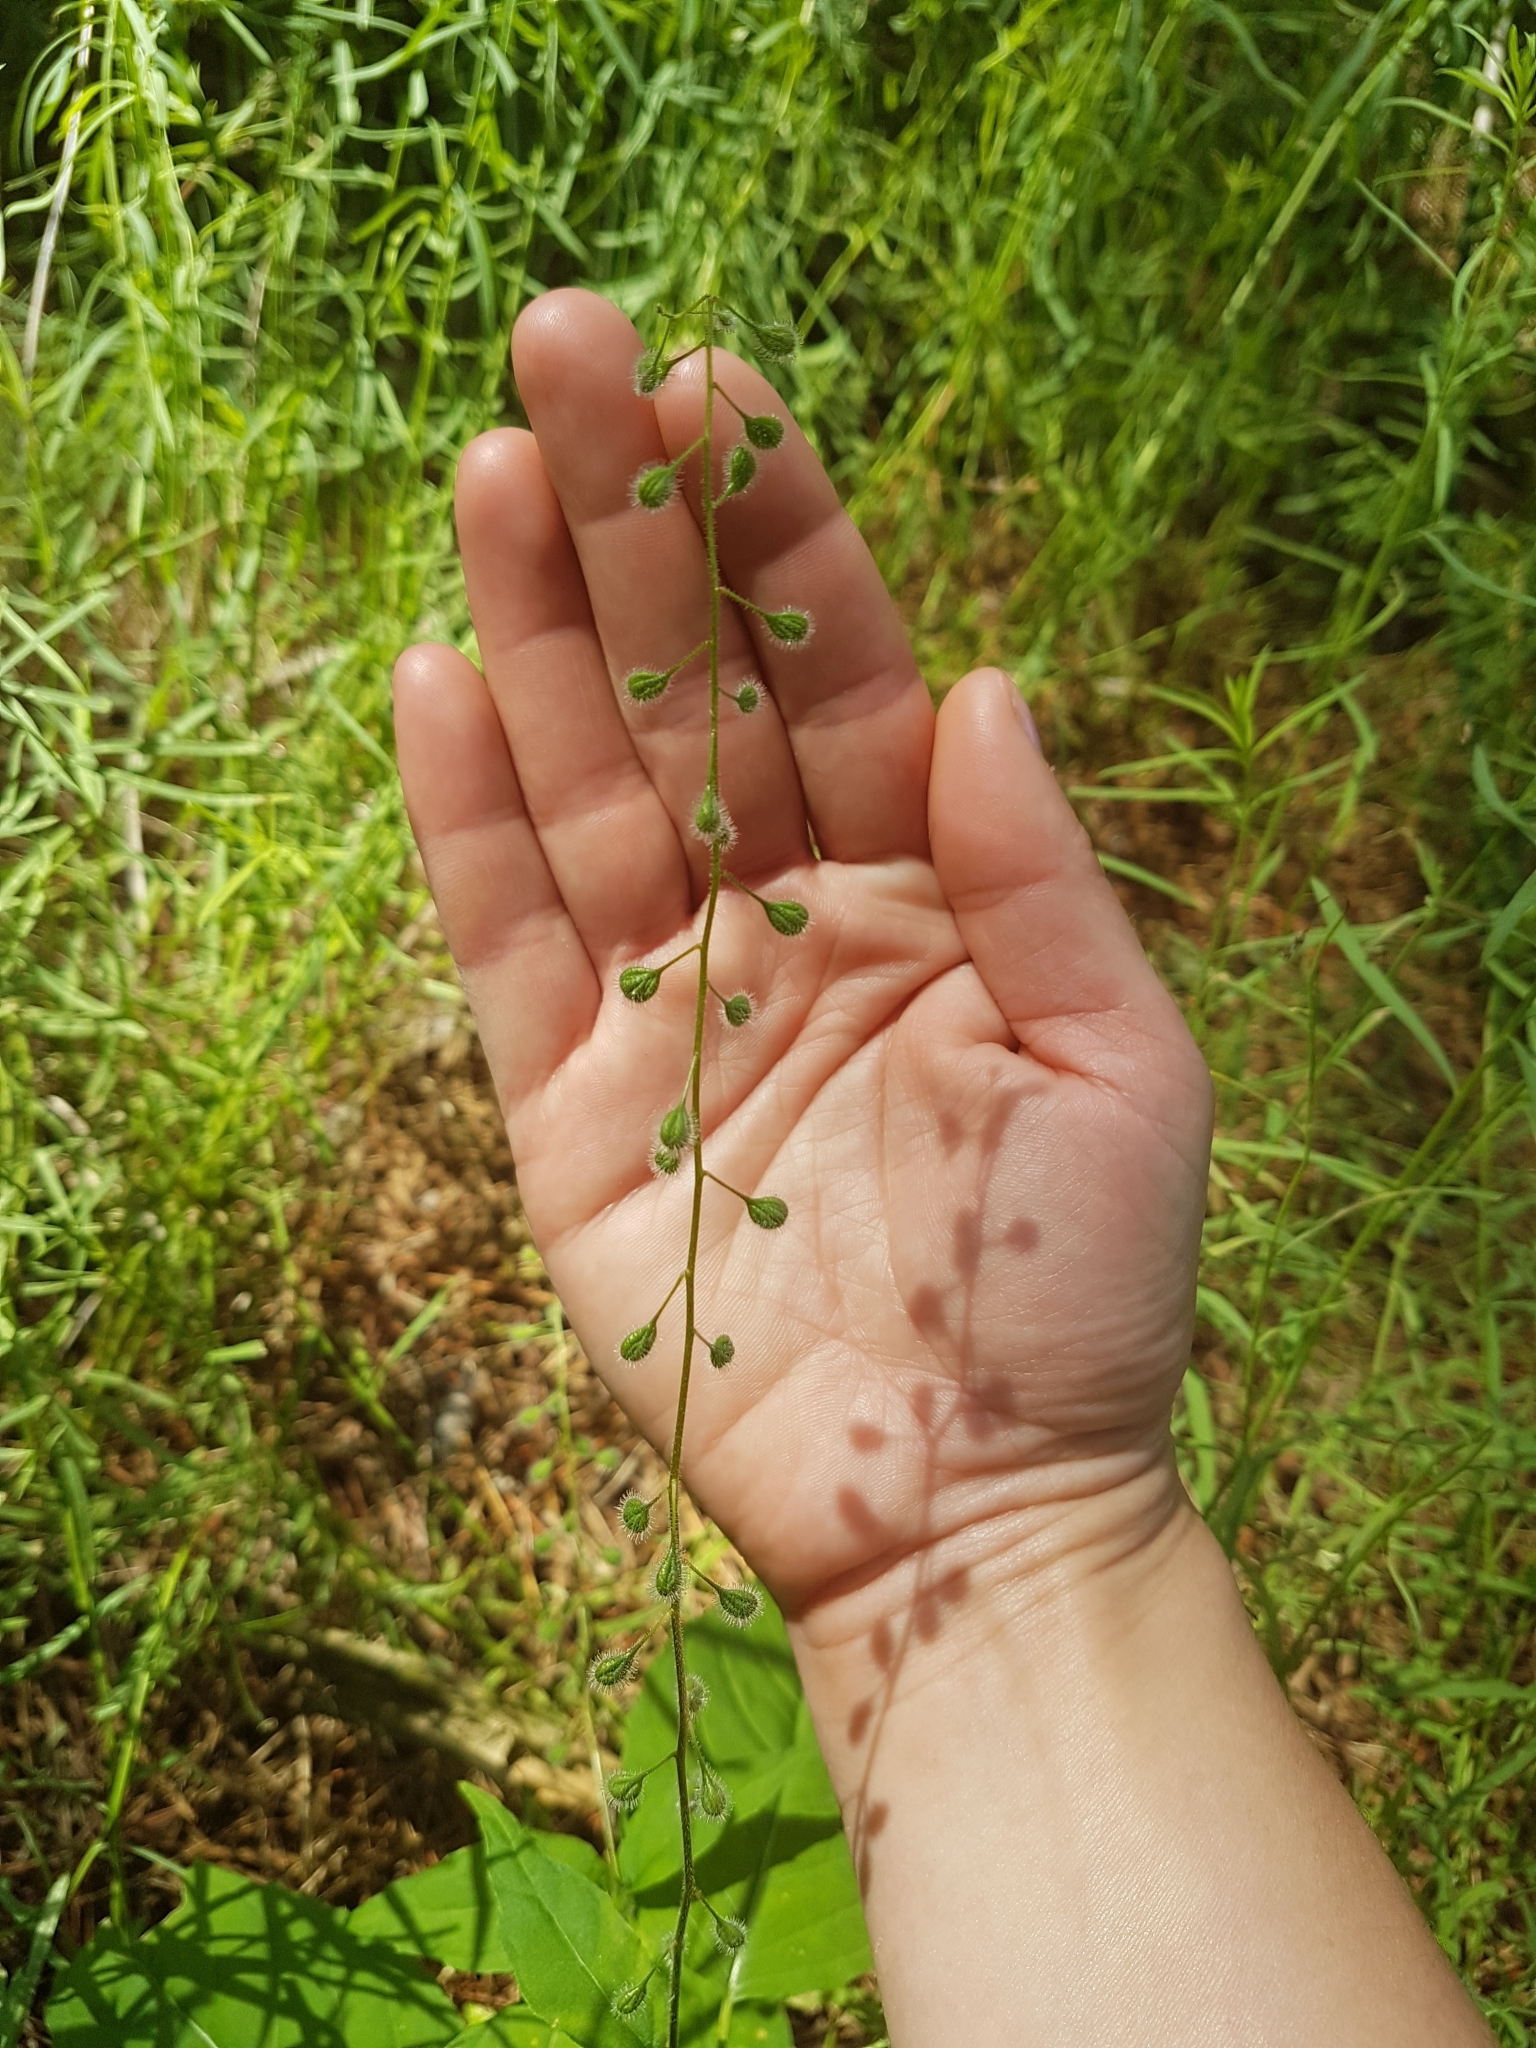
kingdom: Plantae
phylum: Tracheophyta
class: Magnoliopsida
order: Myrtales
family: Onagraceae
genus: Circaea
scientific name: Circaea canadensis
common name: Broad-leaved enchanter's nightshade
